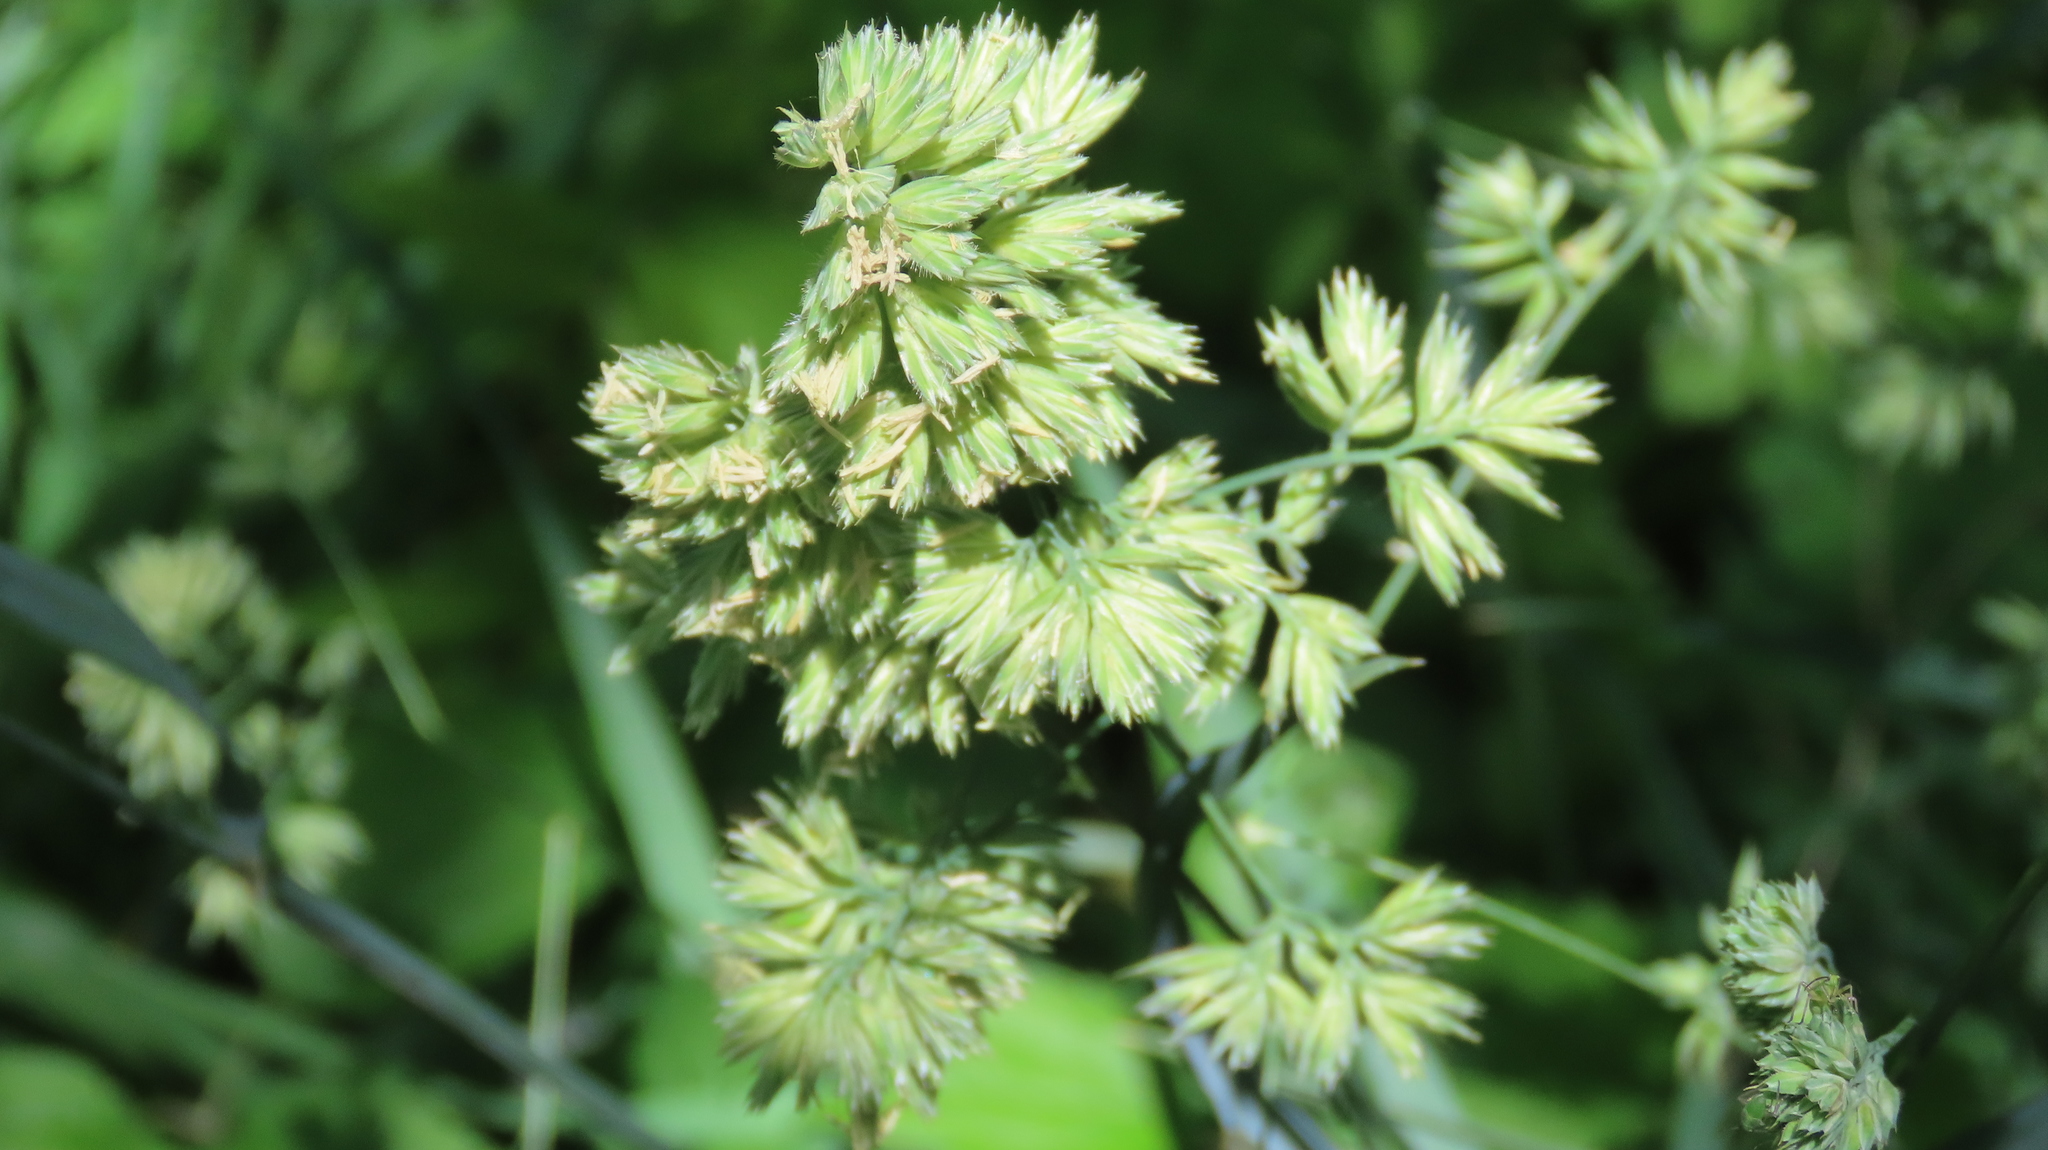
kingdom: Plantae
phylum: Tracheophyta
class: Liliopsida
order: Poales
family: Poaceae
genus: Dactylis
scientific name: Dactylis glomerata
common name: Orchardgrass
